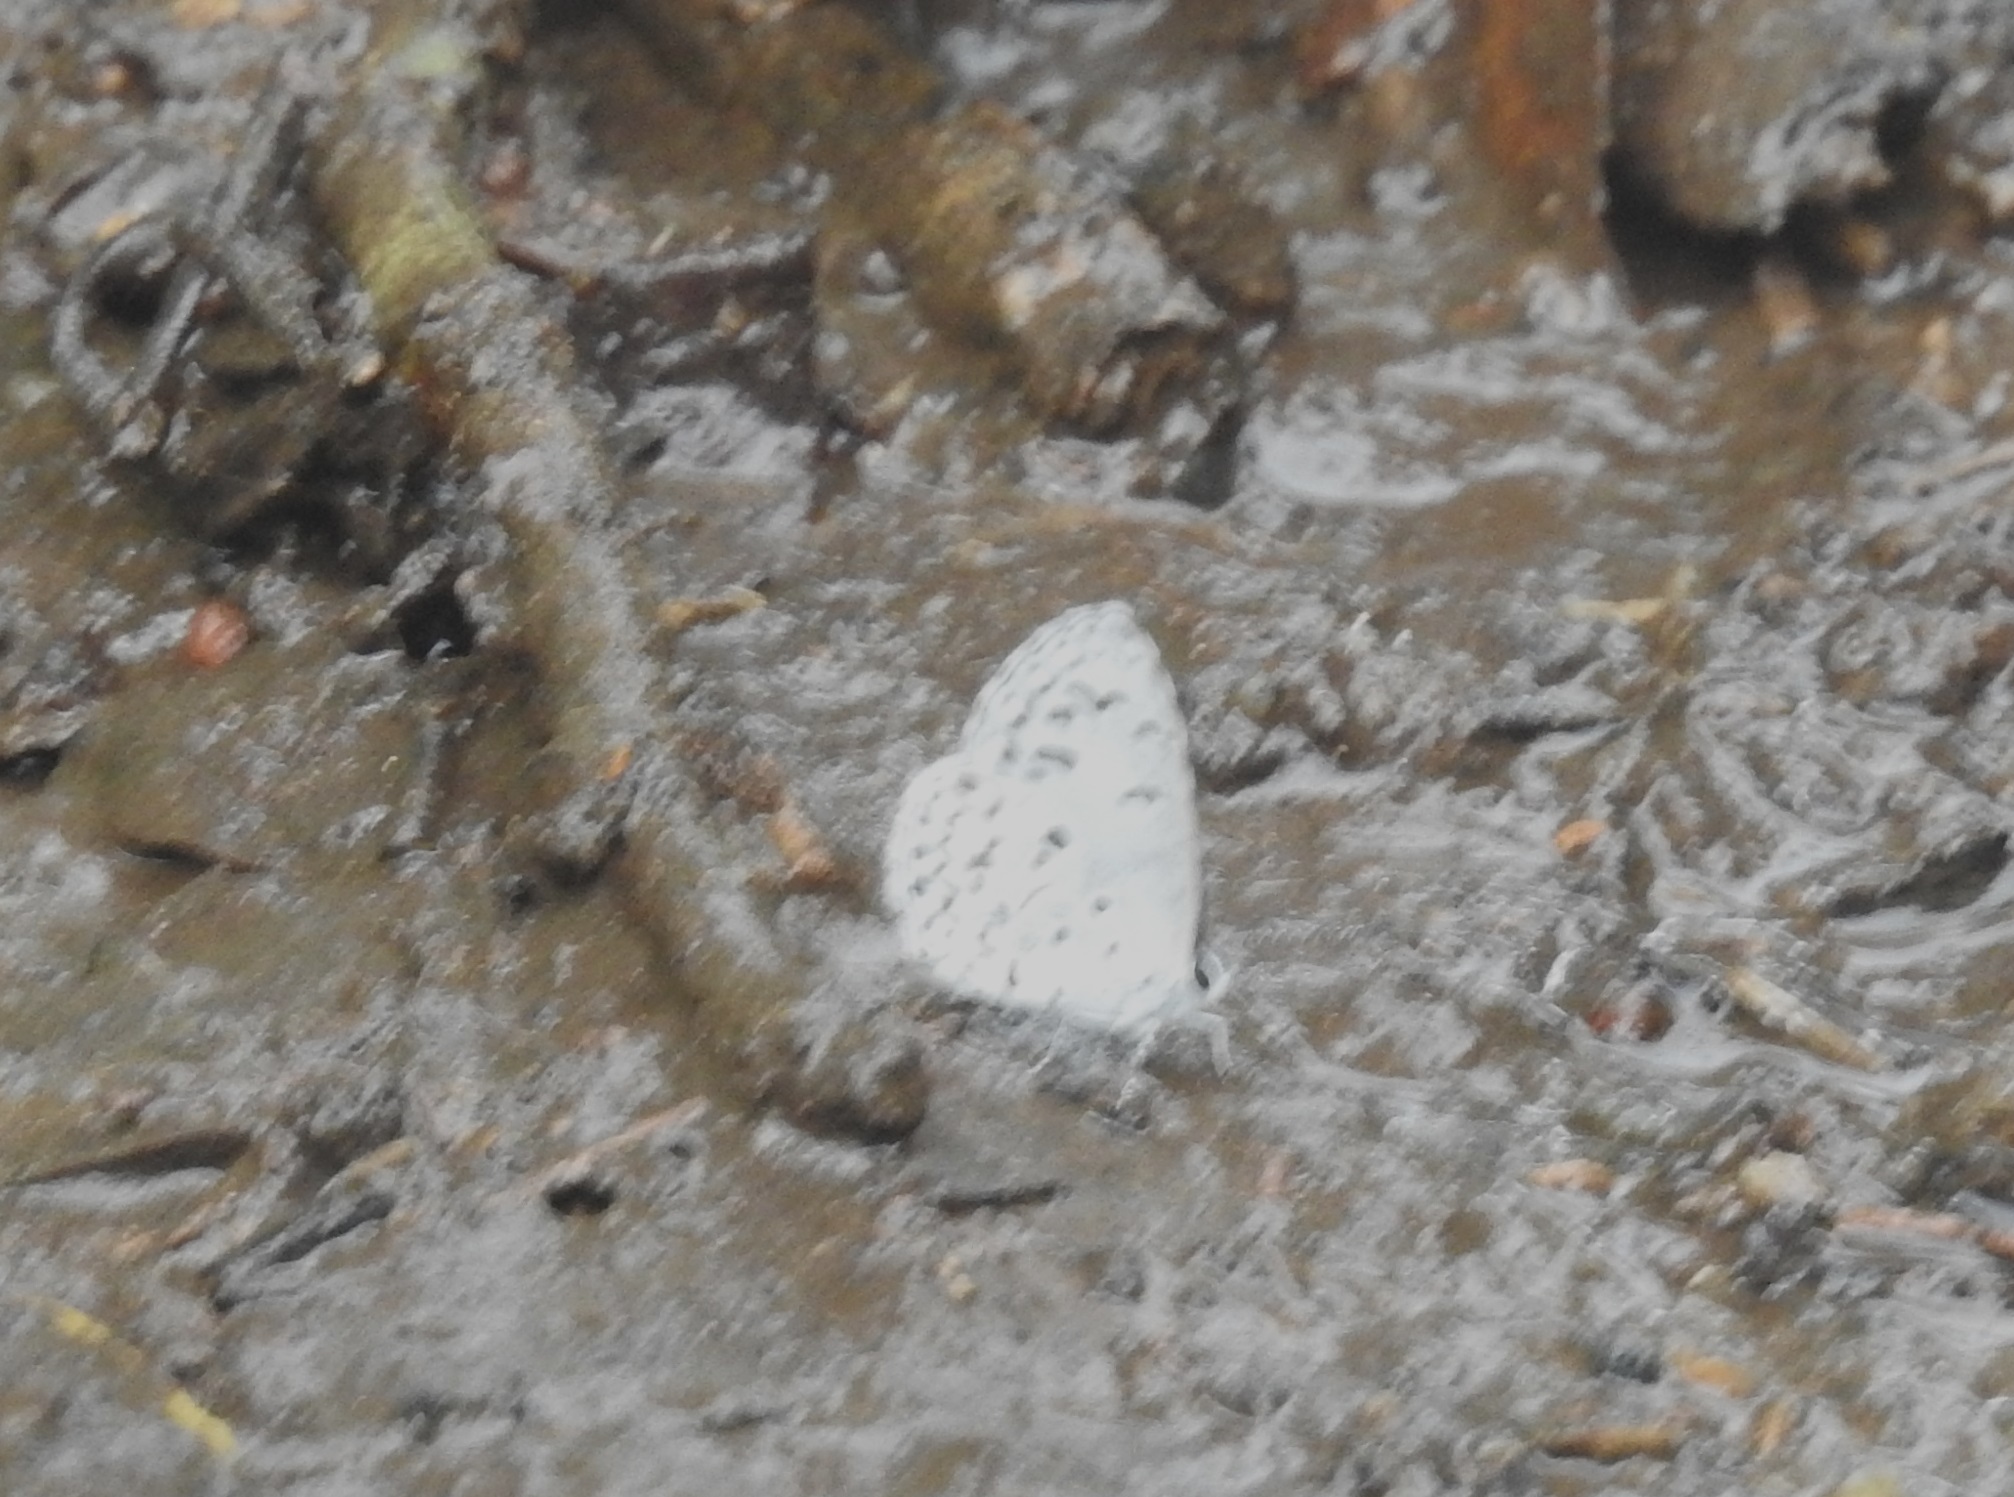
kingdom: Animalia
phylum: Arthropoda
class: Insecta
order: Lepidoptera
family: Lycaenidae
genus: Acytolepis
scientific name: Acytolepis puspa
